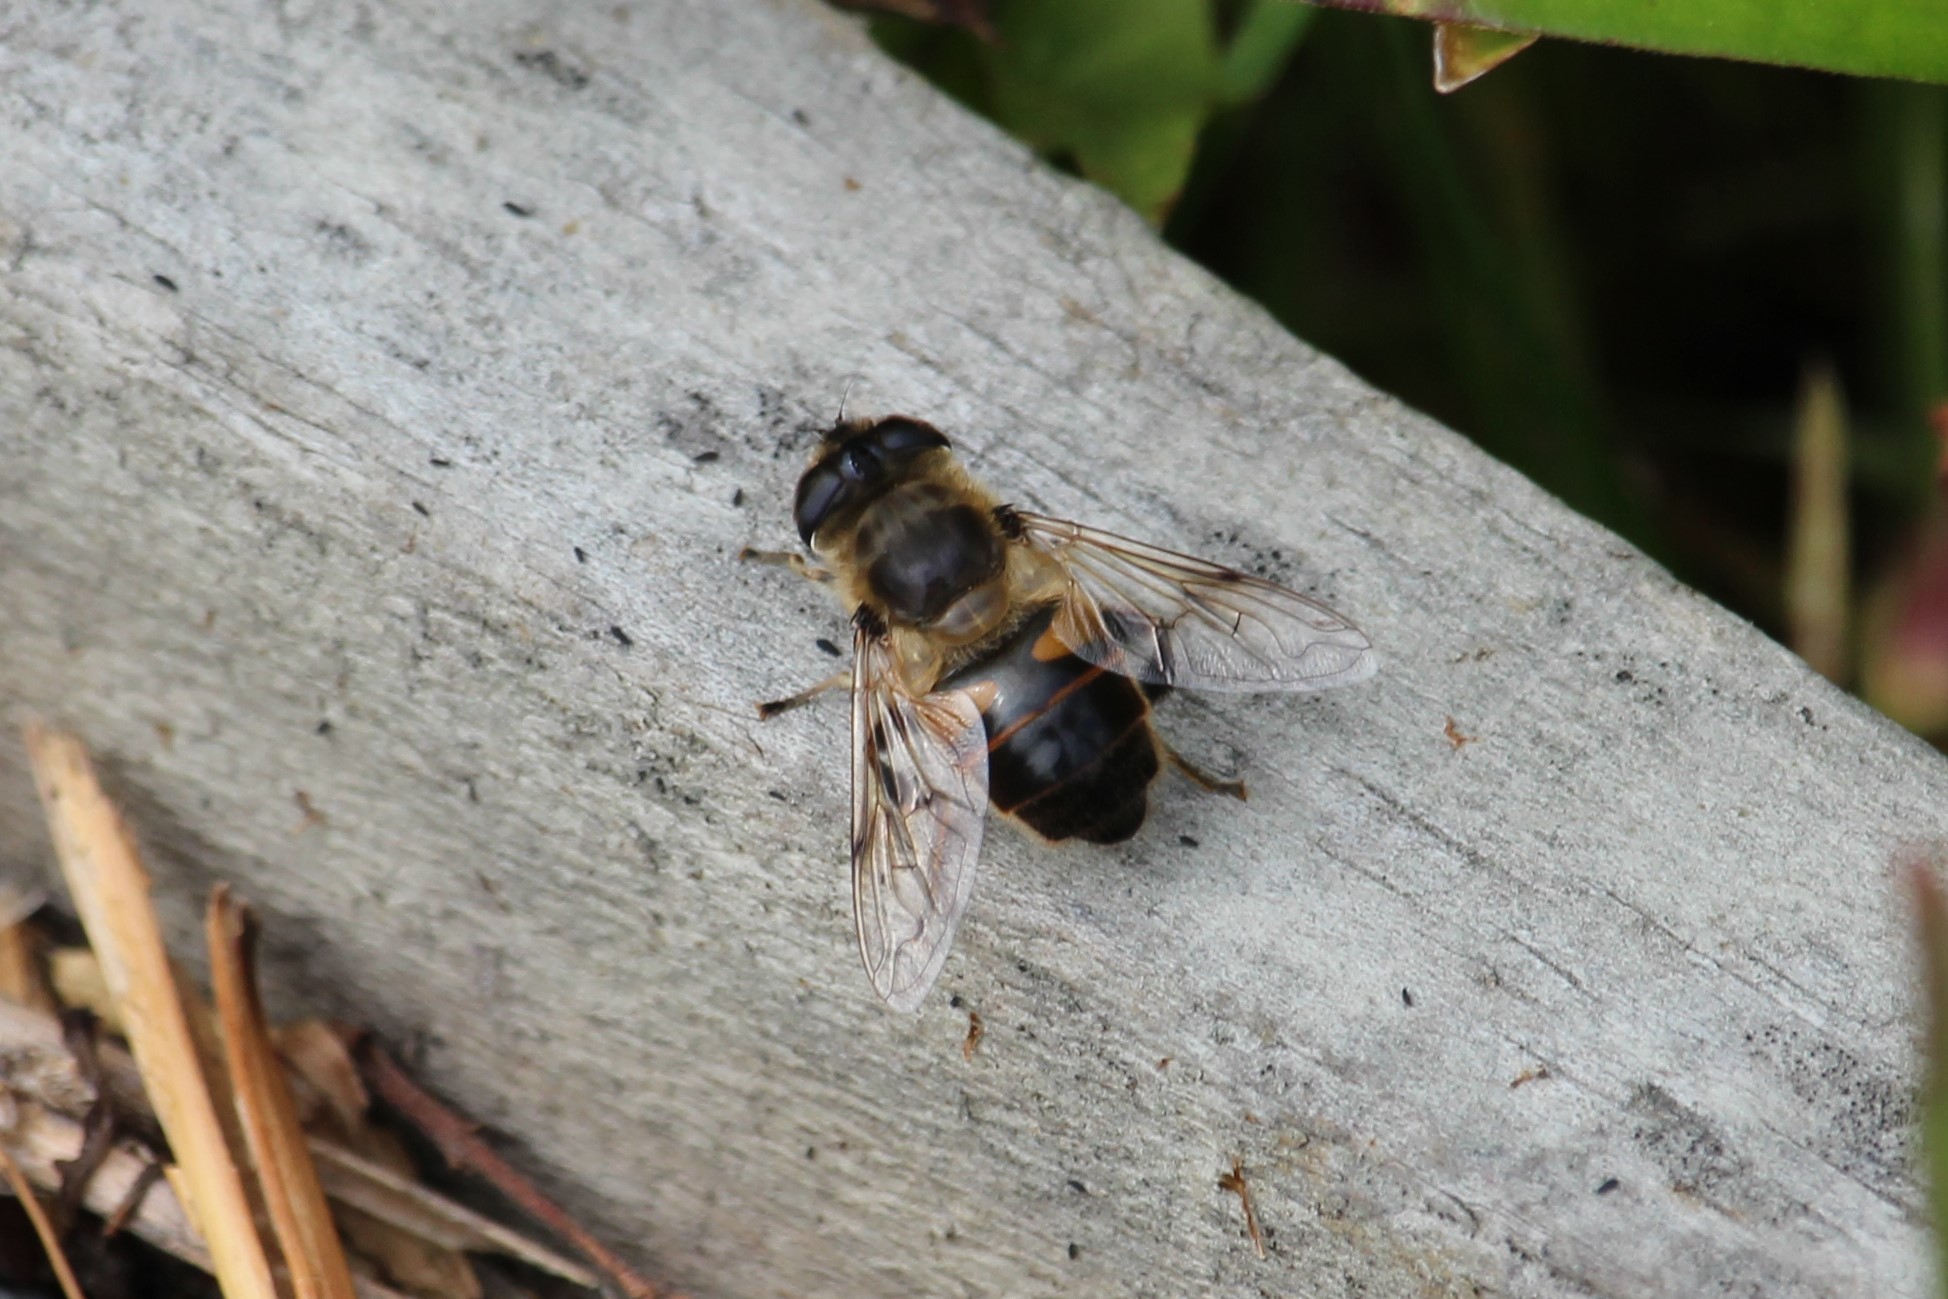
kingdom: Animalia
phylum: Arthropoda
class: Insecta
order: Diptera
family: Syrphidae
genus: Eristalis
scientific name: Eristalis tenax
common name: Drone fly
